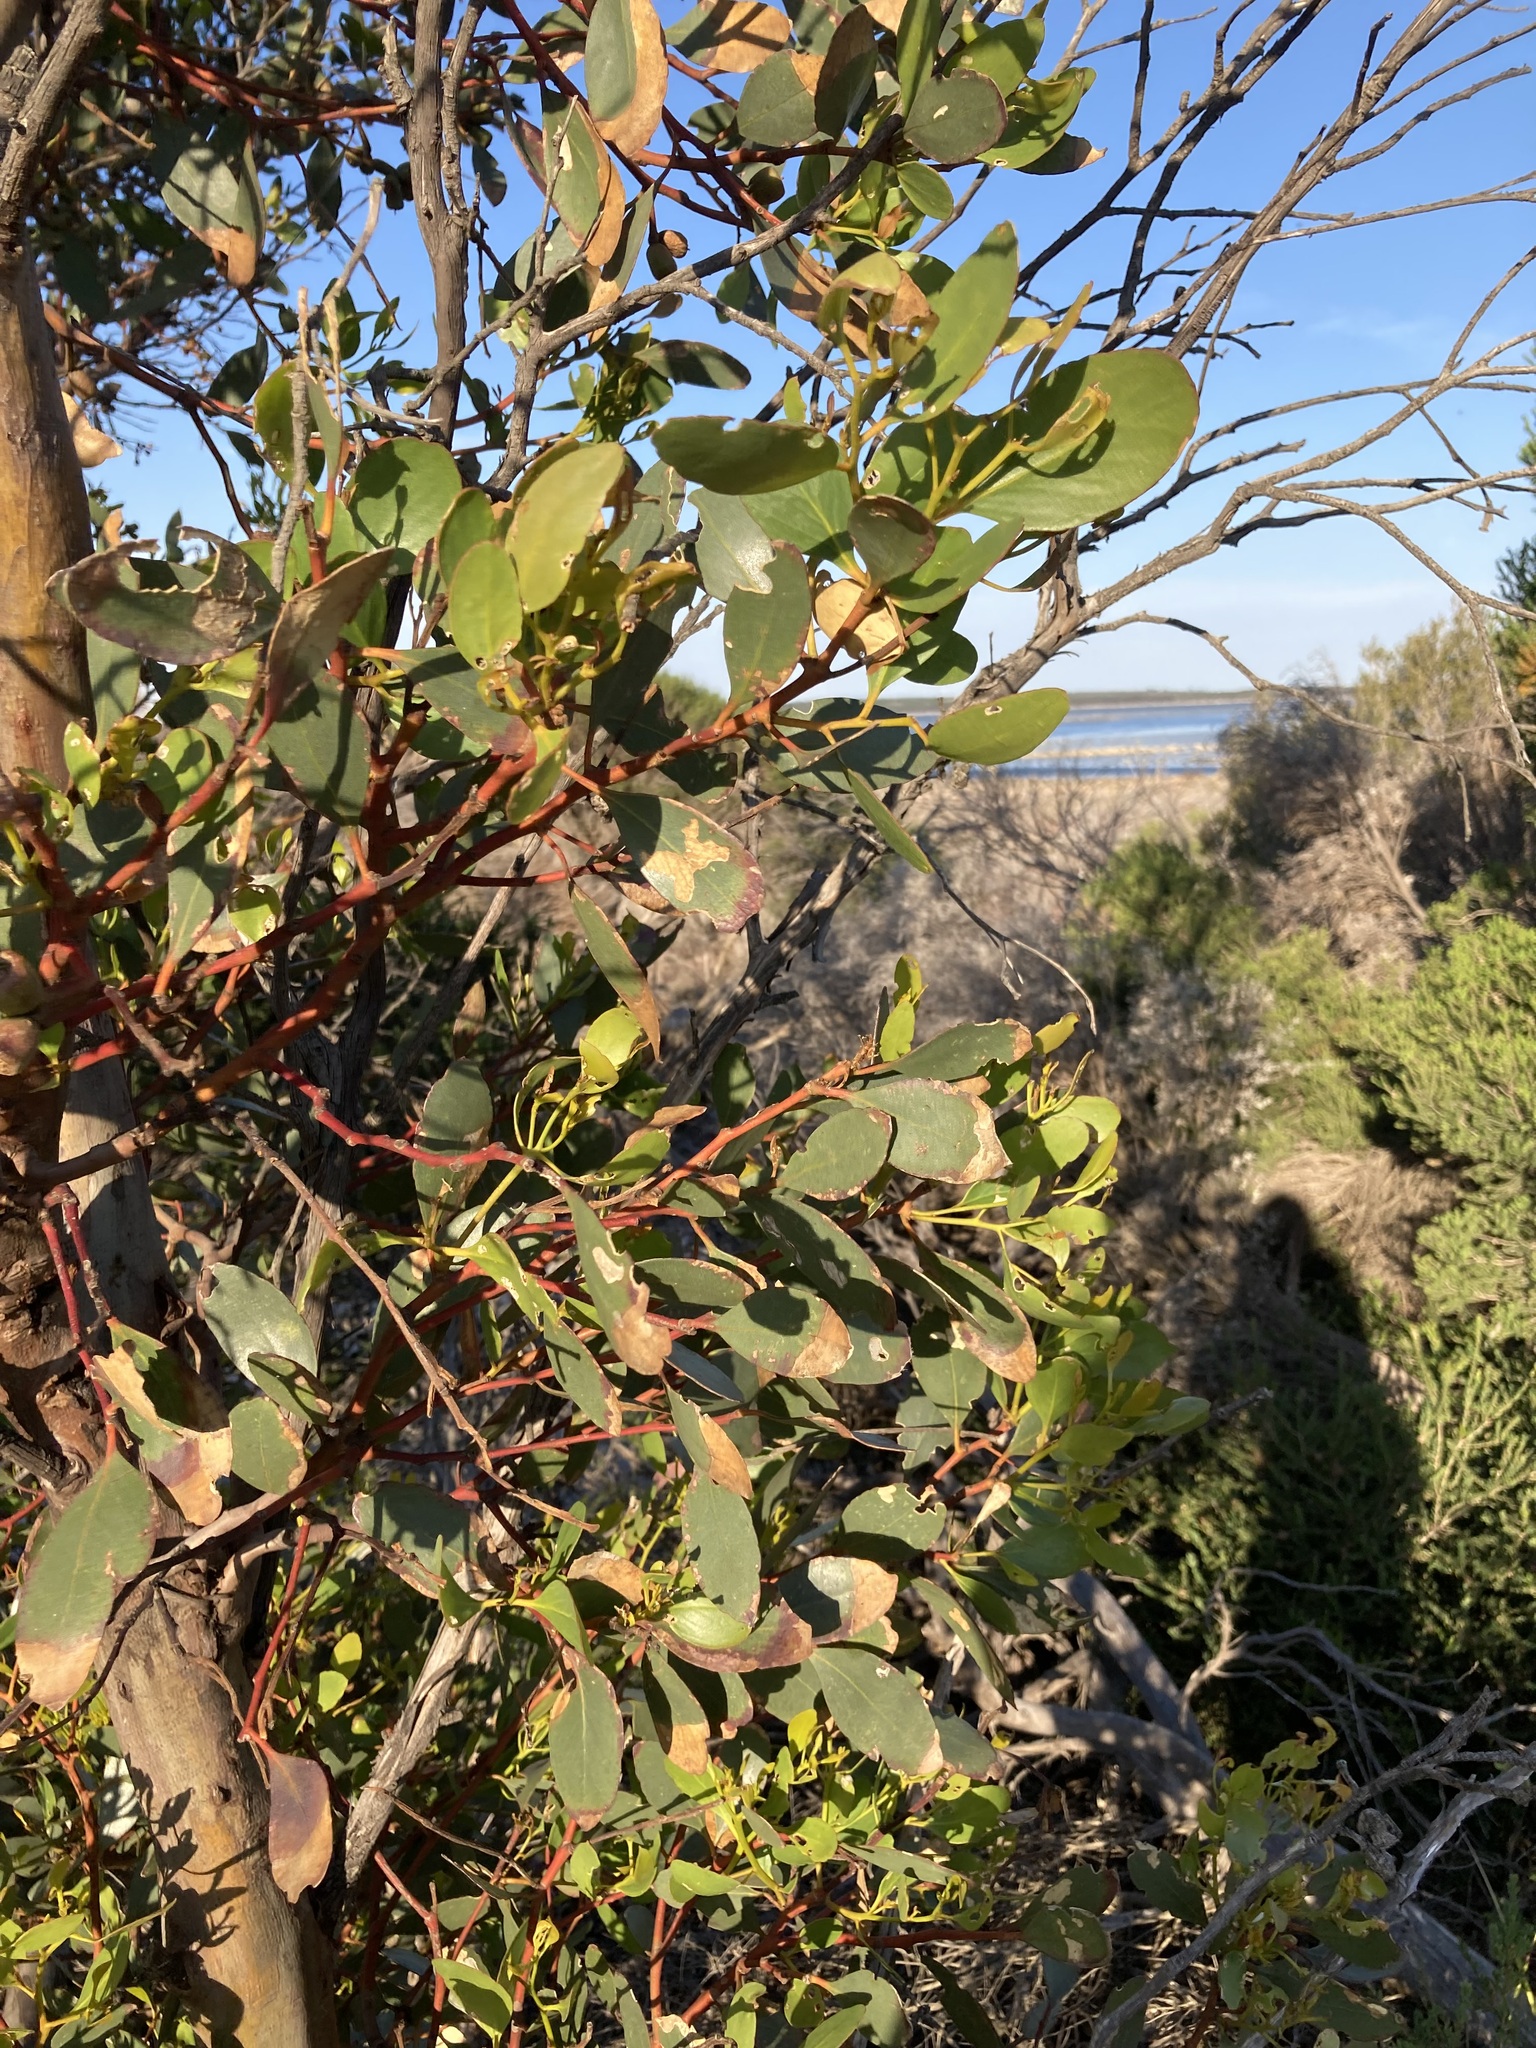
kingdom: Plantae
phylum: Tracheophyta
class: Magnoliopsida
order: Myrtales
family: Myrtaceae
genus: Eucalyptus
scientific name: Eucalyptus utilis
